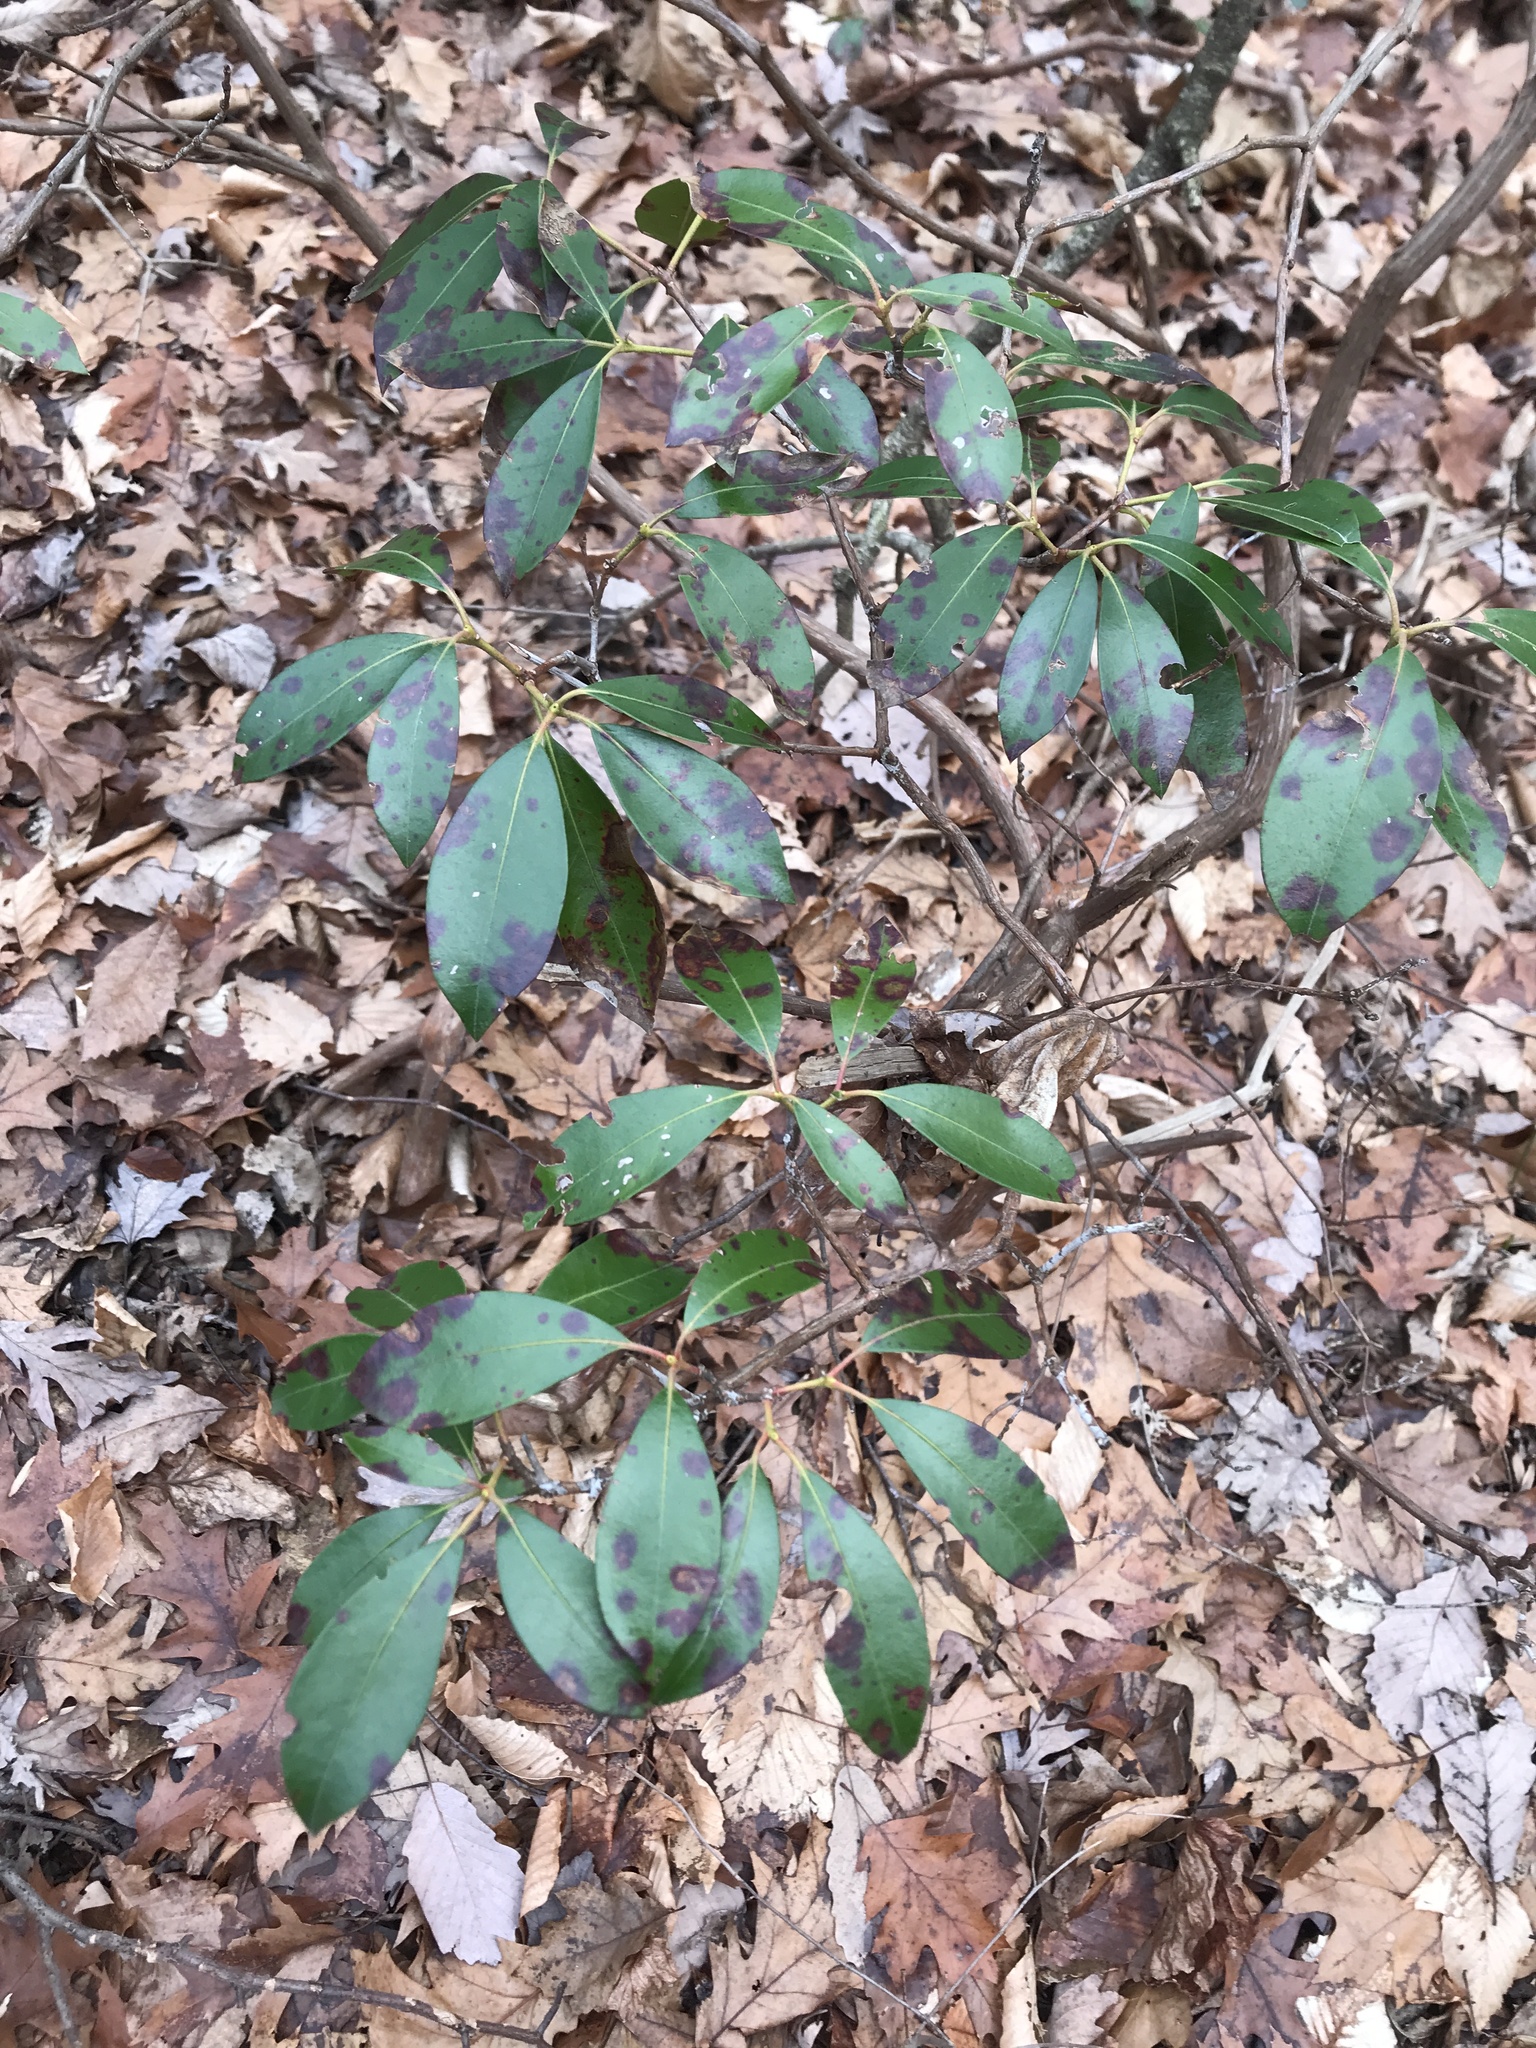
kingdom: Plantae
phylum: Tracheophyta
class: Magnoliopsida
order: Ericales
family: Ericaceae
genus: Kalmia
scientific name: Kalmia latifolia
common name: Mountain-laurel
